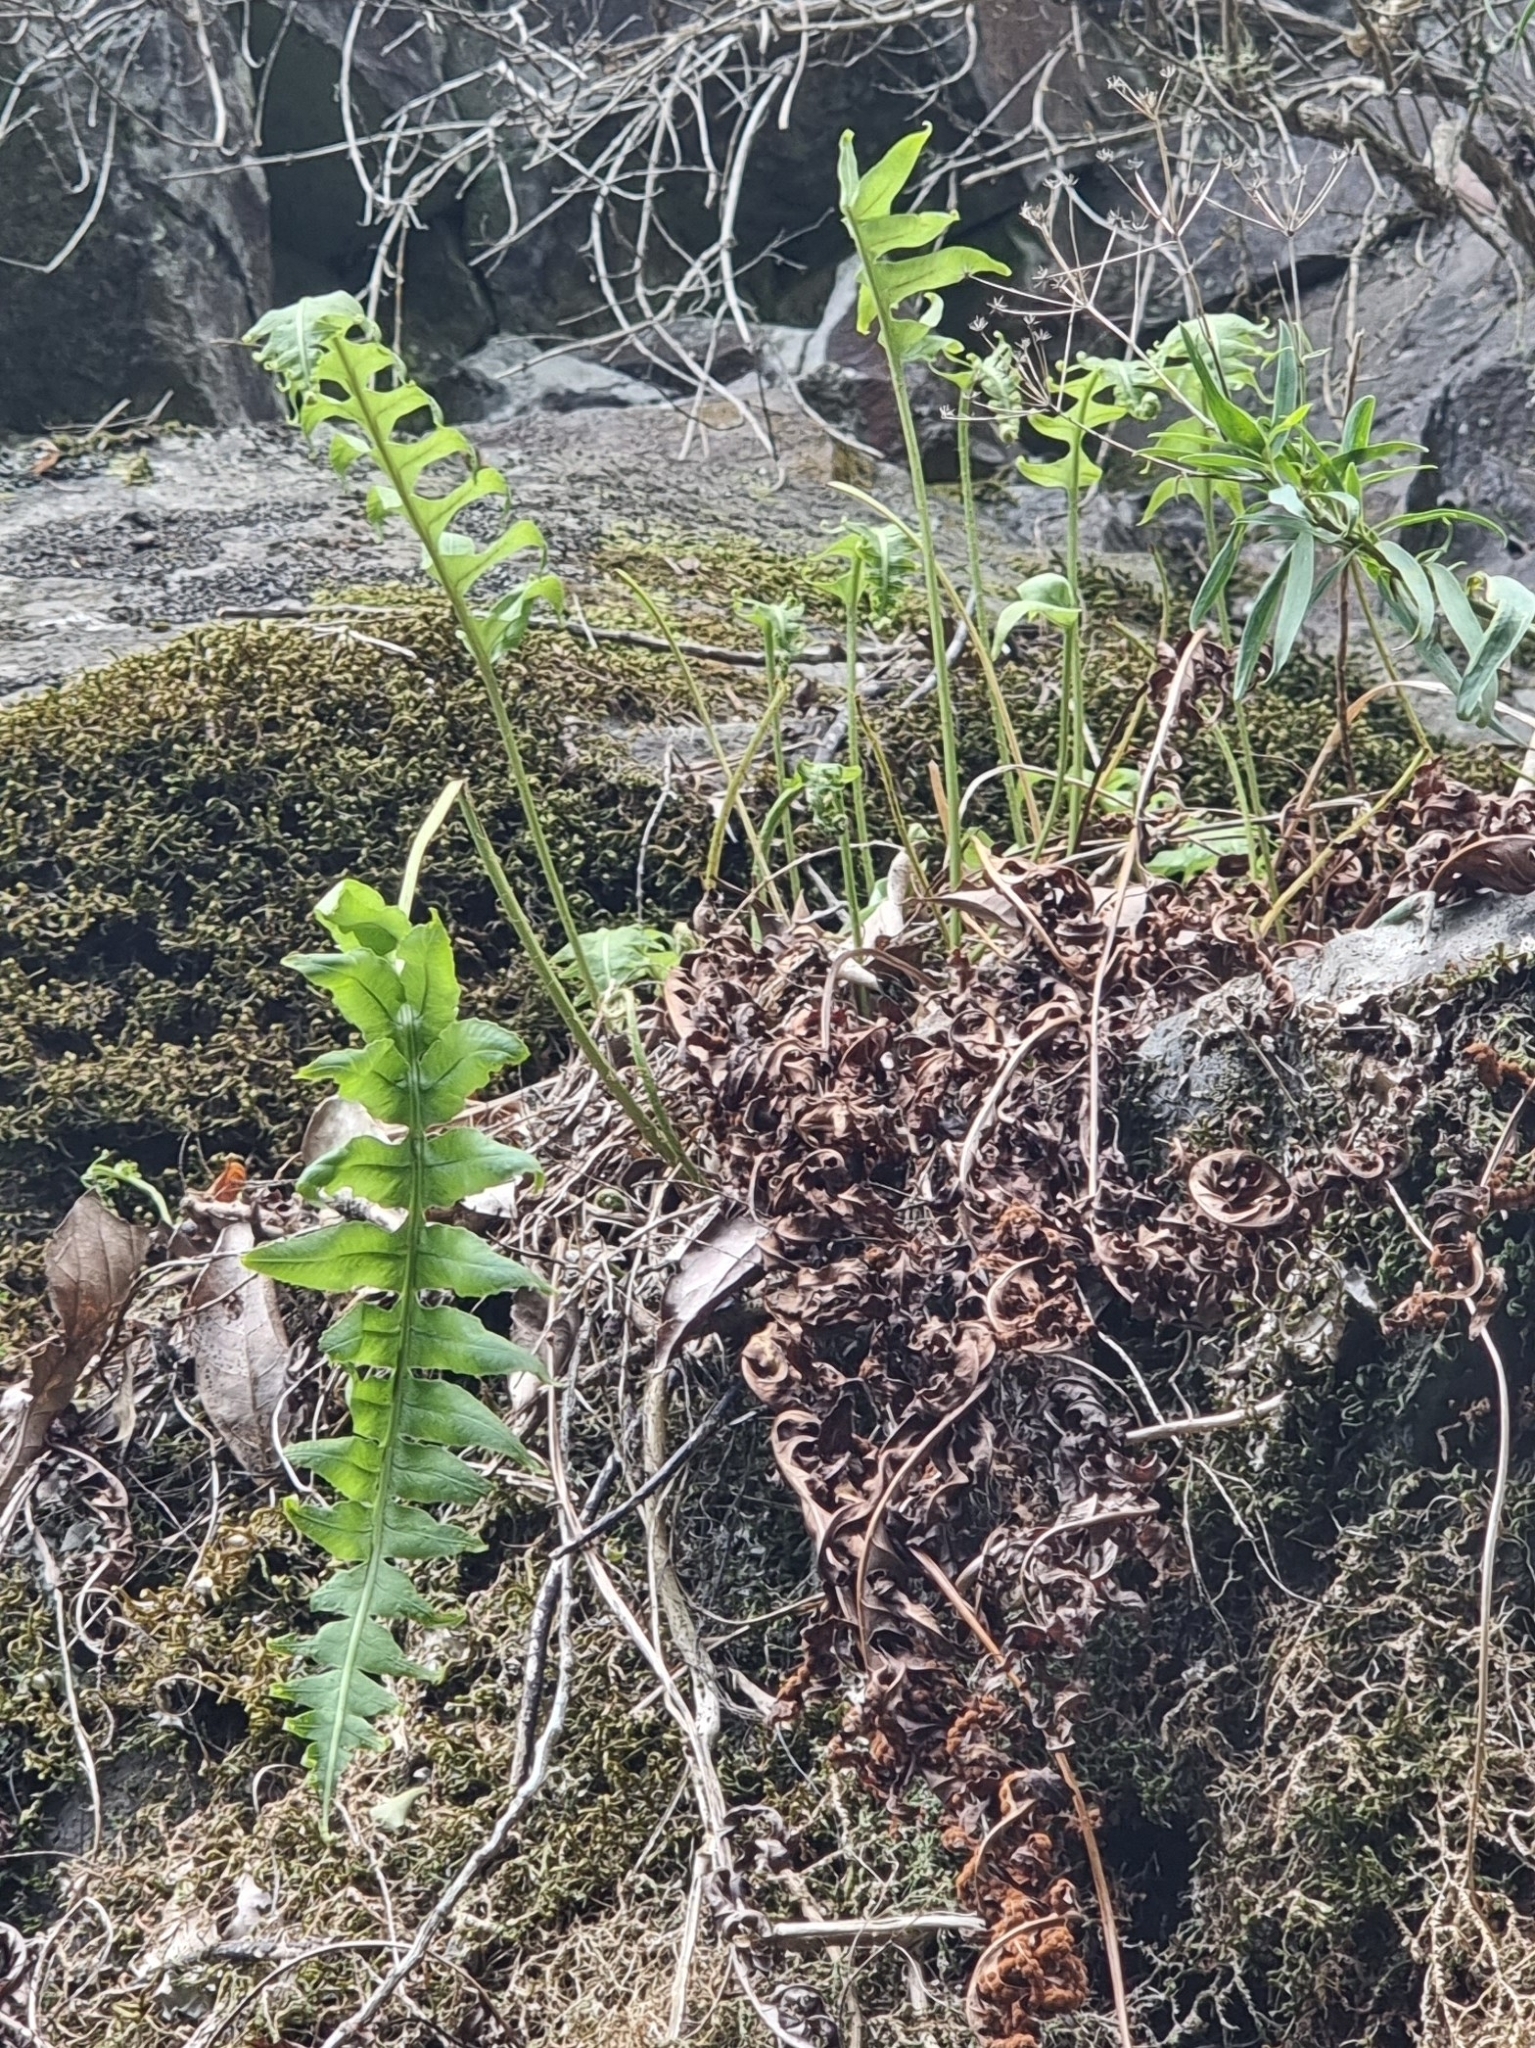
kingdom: Plantae
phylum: Tracheophyta
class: Polypodiopsida
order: Polypodiales
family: Polypodiaceae
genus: Polypodium
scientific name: Polypodium macaronesicum
